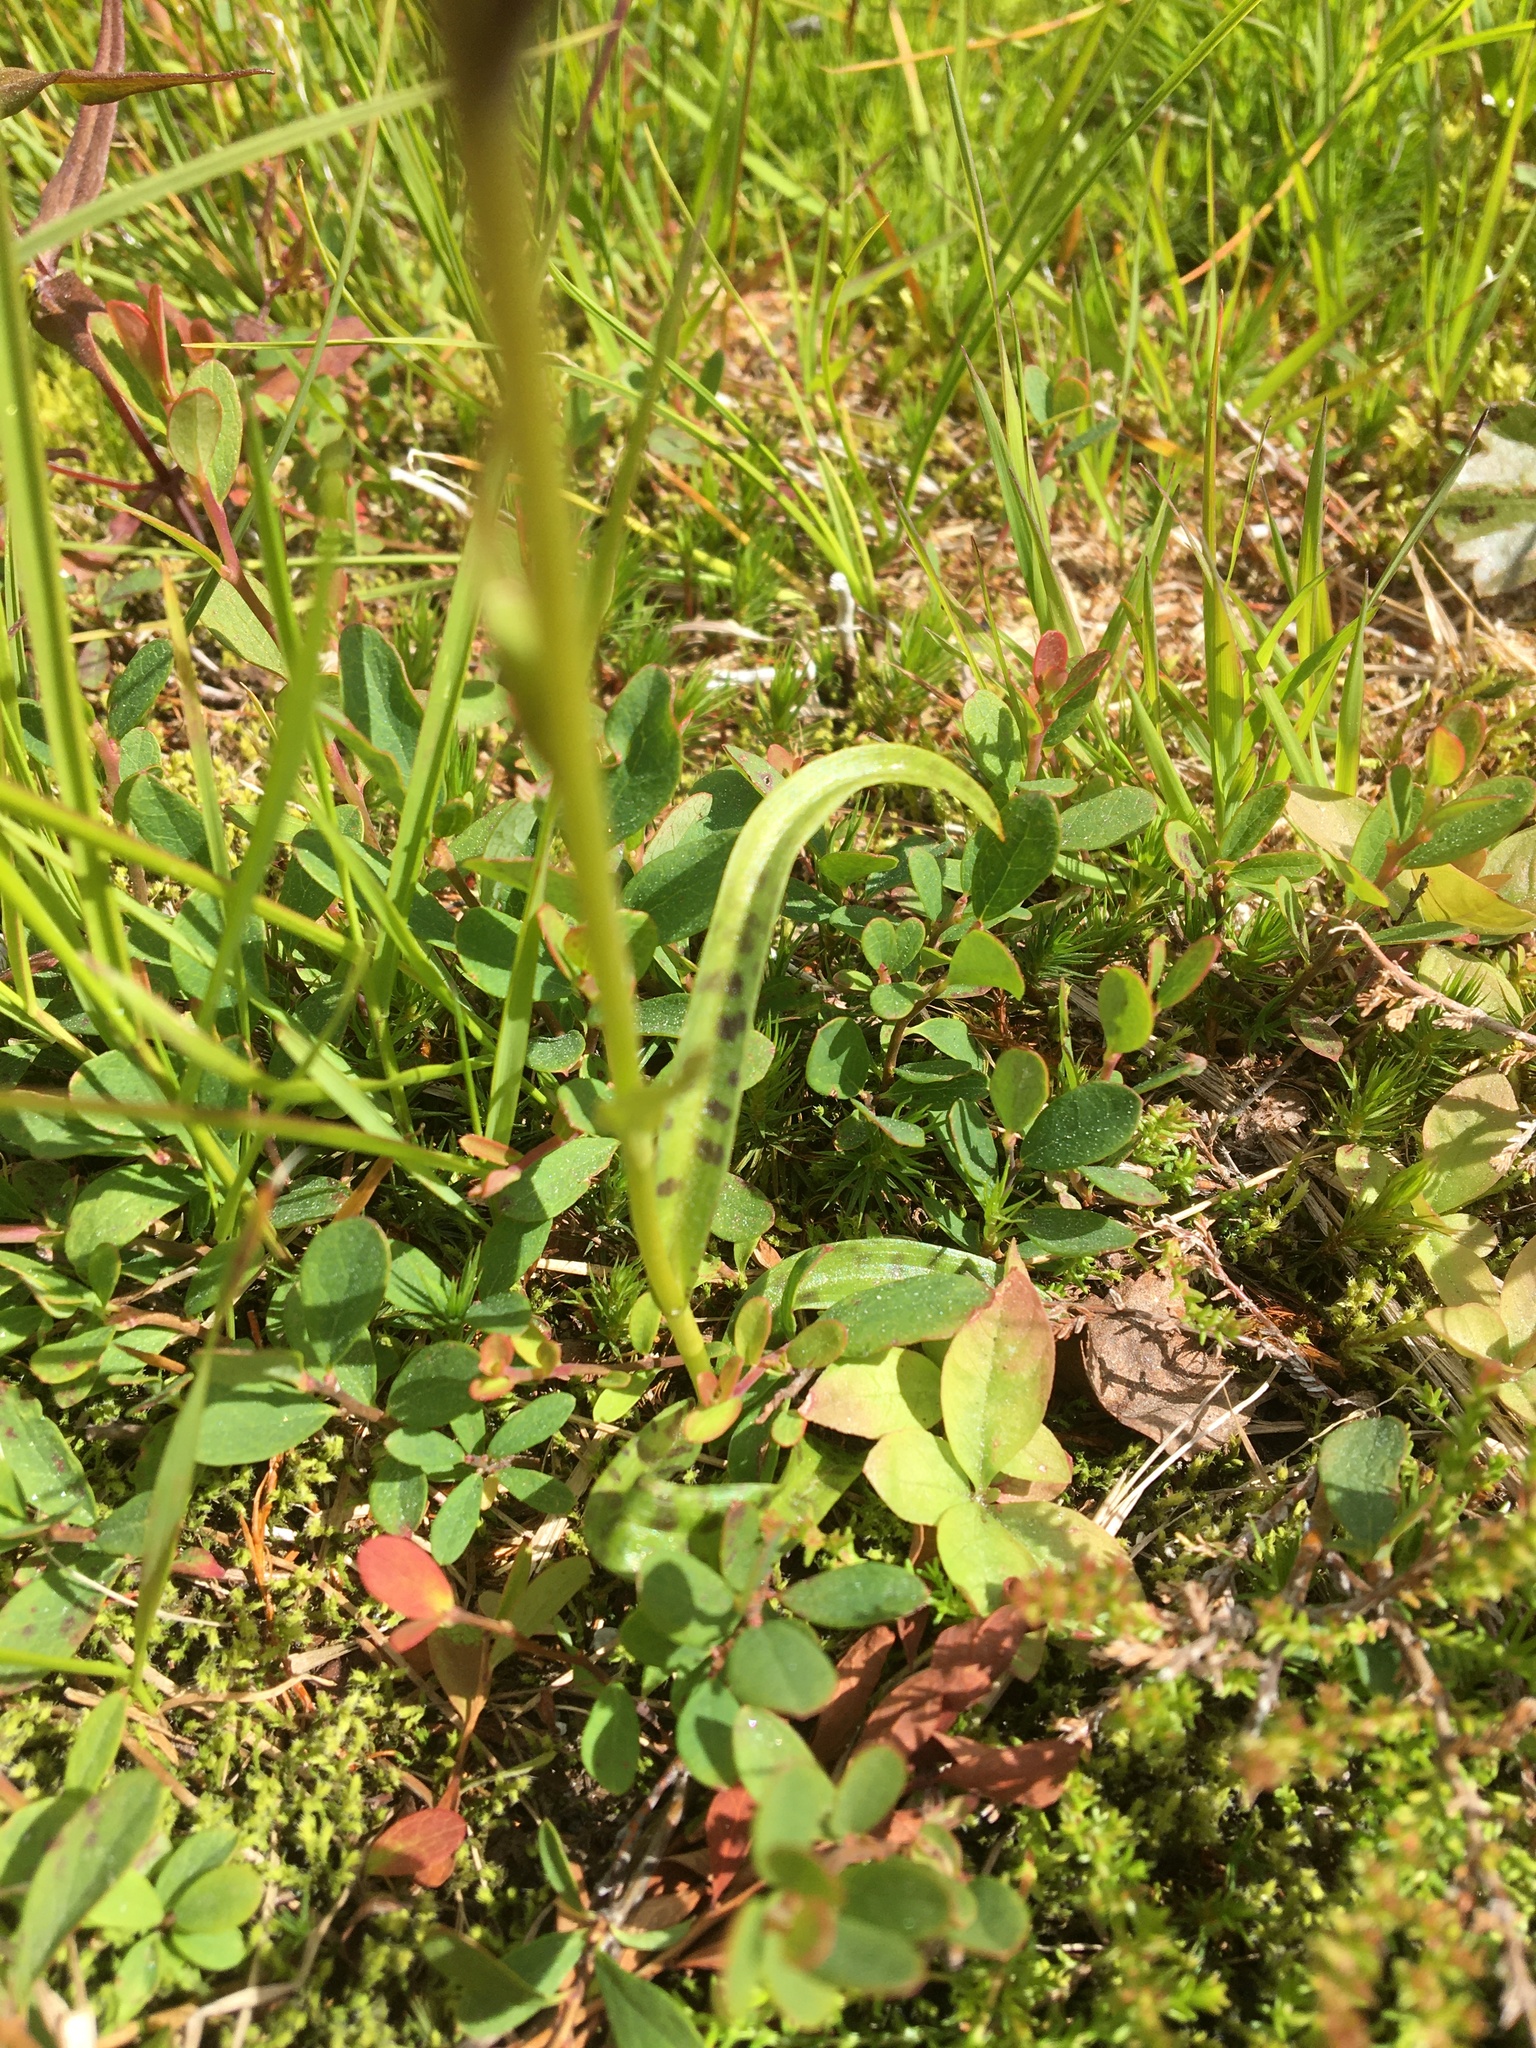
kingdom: Plantae
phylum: Tracheophyta
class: Liliopsida
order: Asparagales
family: Orchidaceae
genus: Dactylorhiza
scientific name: Dactylorhiza maculata
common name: Heath spotted-orchid
